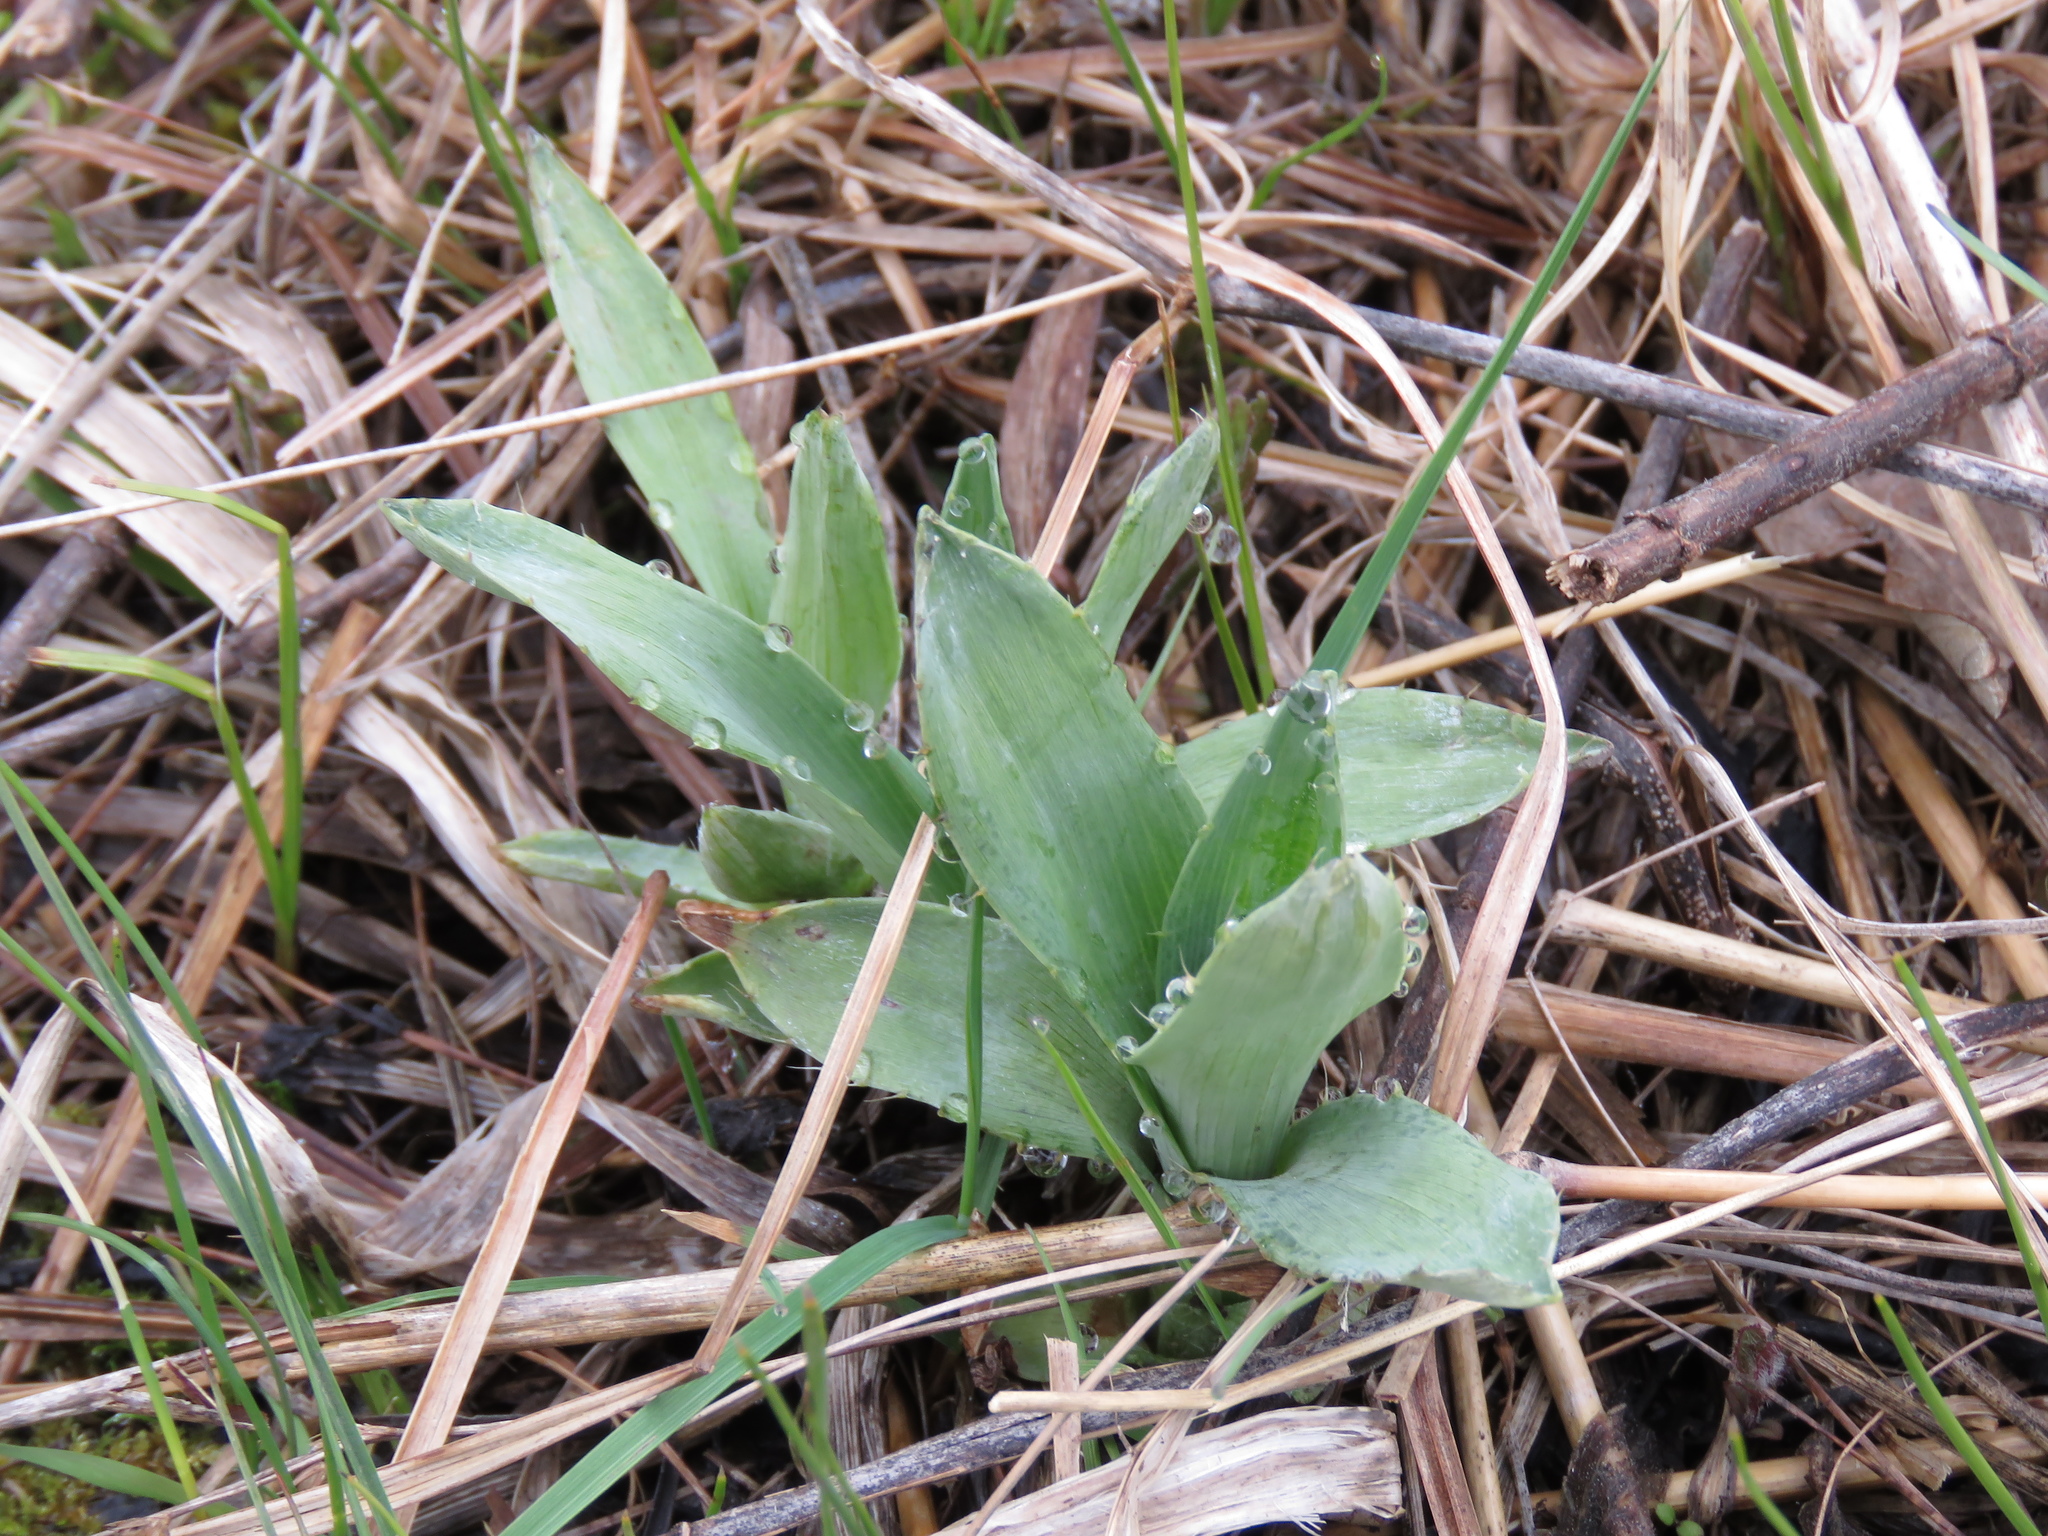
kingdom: Plantae
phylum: Tracheophyta
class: Magnoliopsida
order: Apiales
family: Apiaceae
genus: Eryngium
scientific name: Eryngium yuccifolium
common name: Button eryngo
